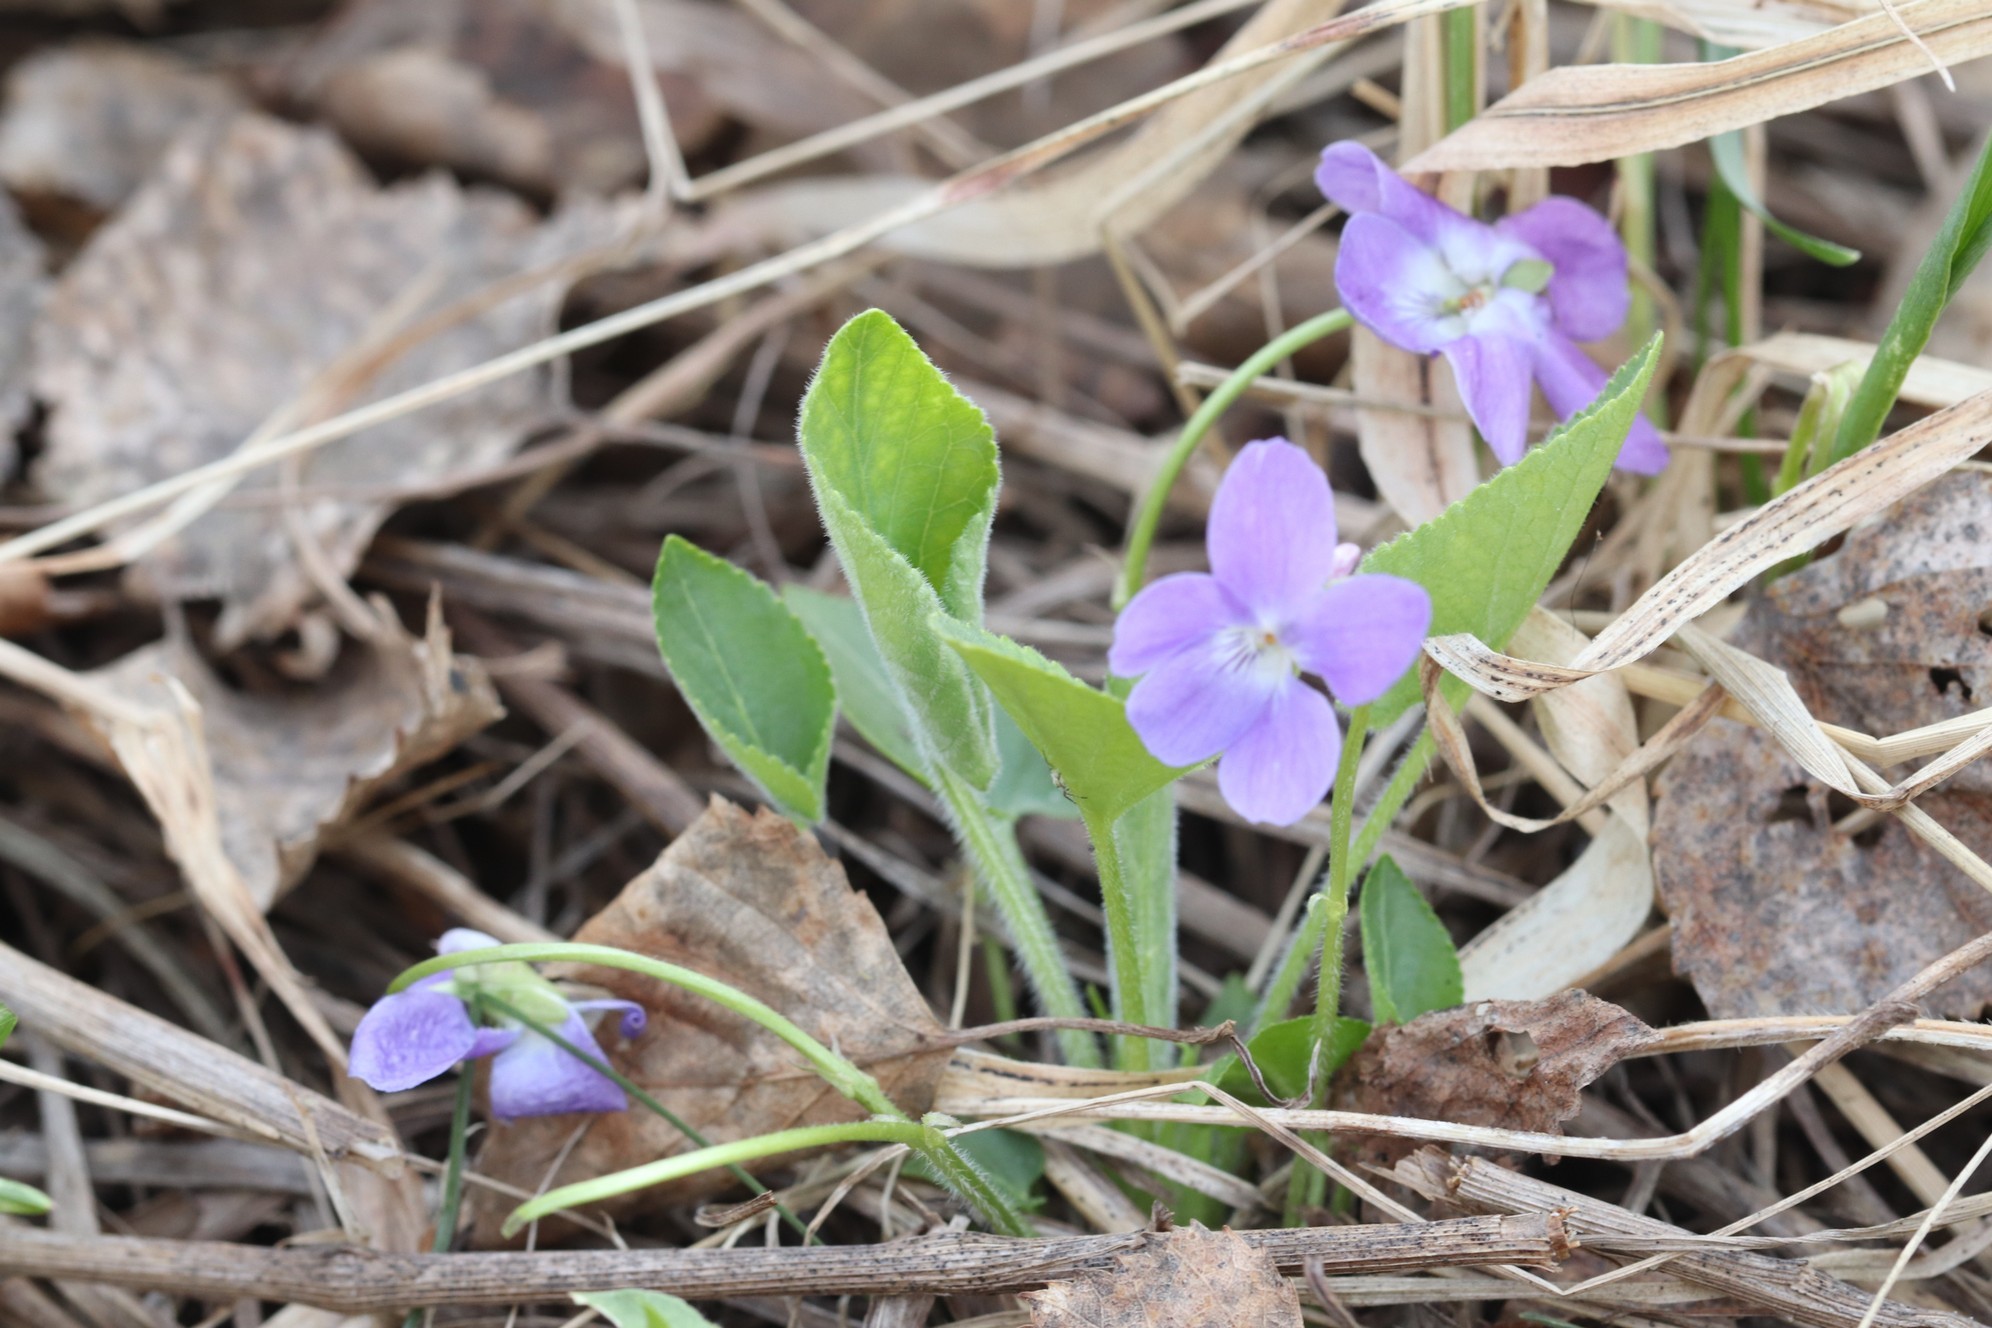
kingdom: Plantae
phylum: Tracheophyta
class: Magnoliopsida
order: Malpighiales
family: Violaceae
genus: Viola
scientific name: Viola hirta
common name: Hairy violet
